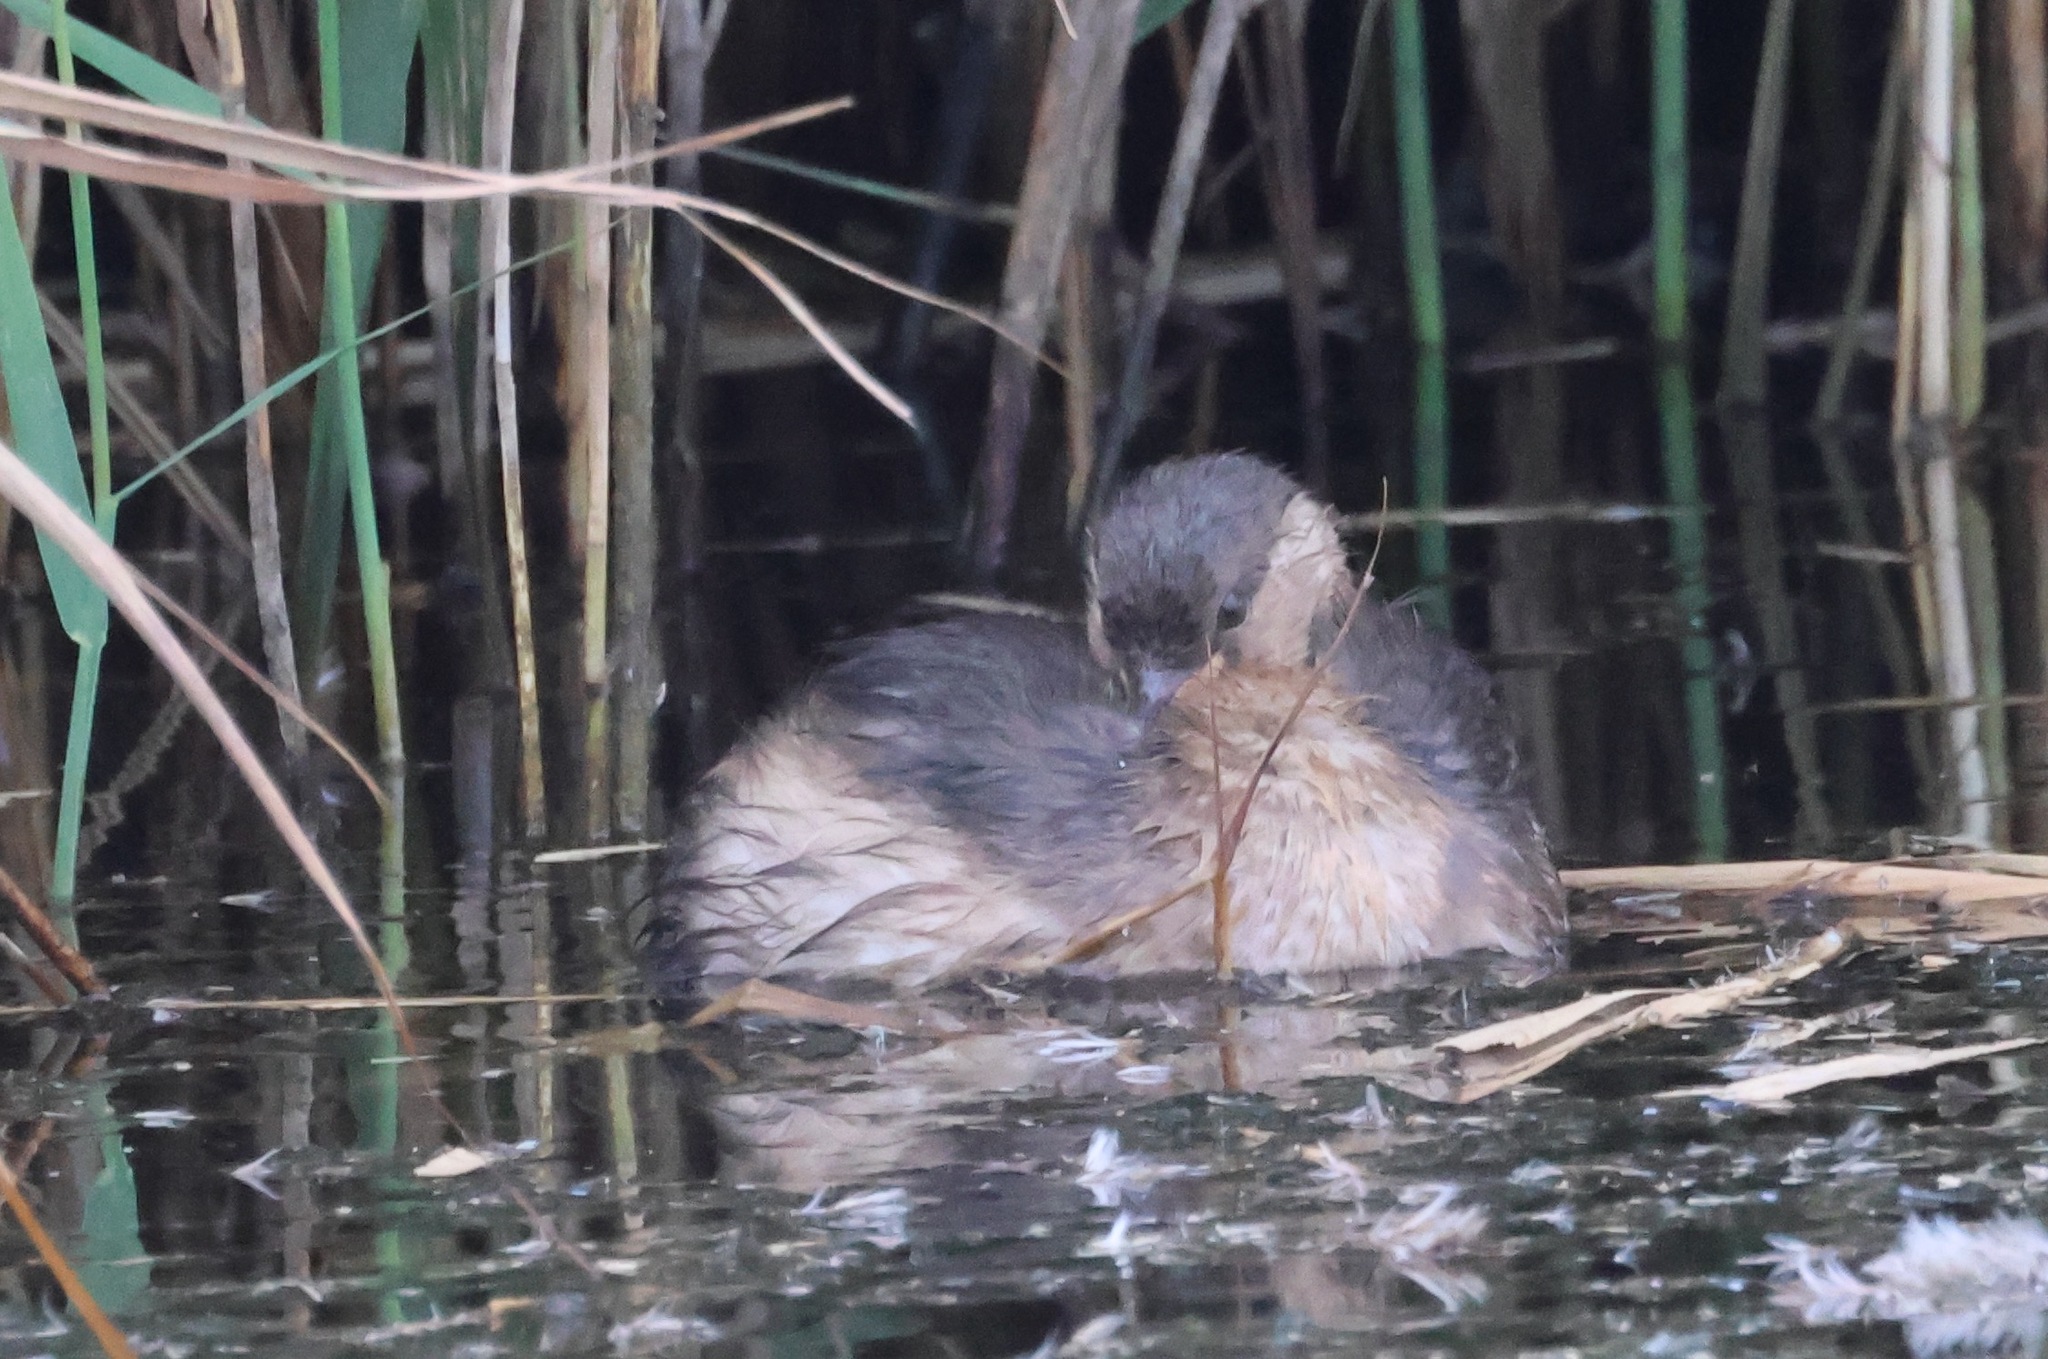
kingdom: Animalia
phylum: Chordata
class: Aves
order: Podicipediformes
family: Podicipedidae
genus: Tachybaptus
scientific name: Tachybaptus ruficollis
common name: Little grebe
